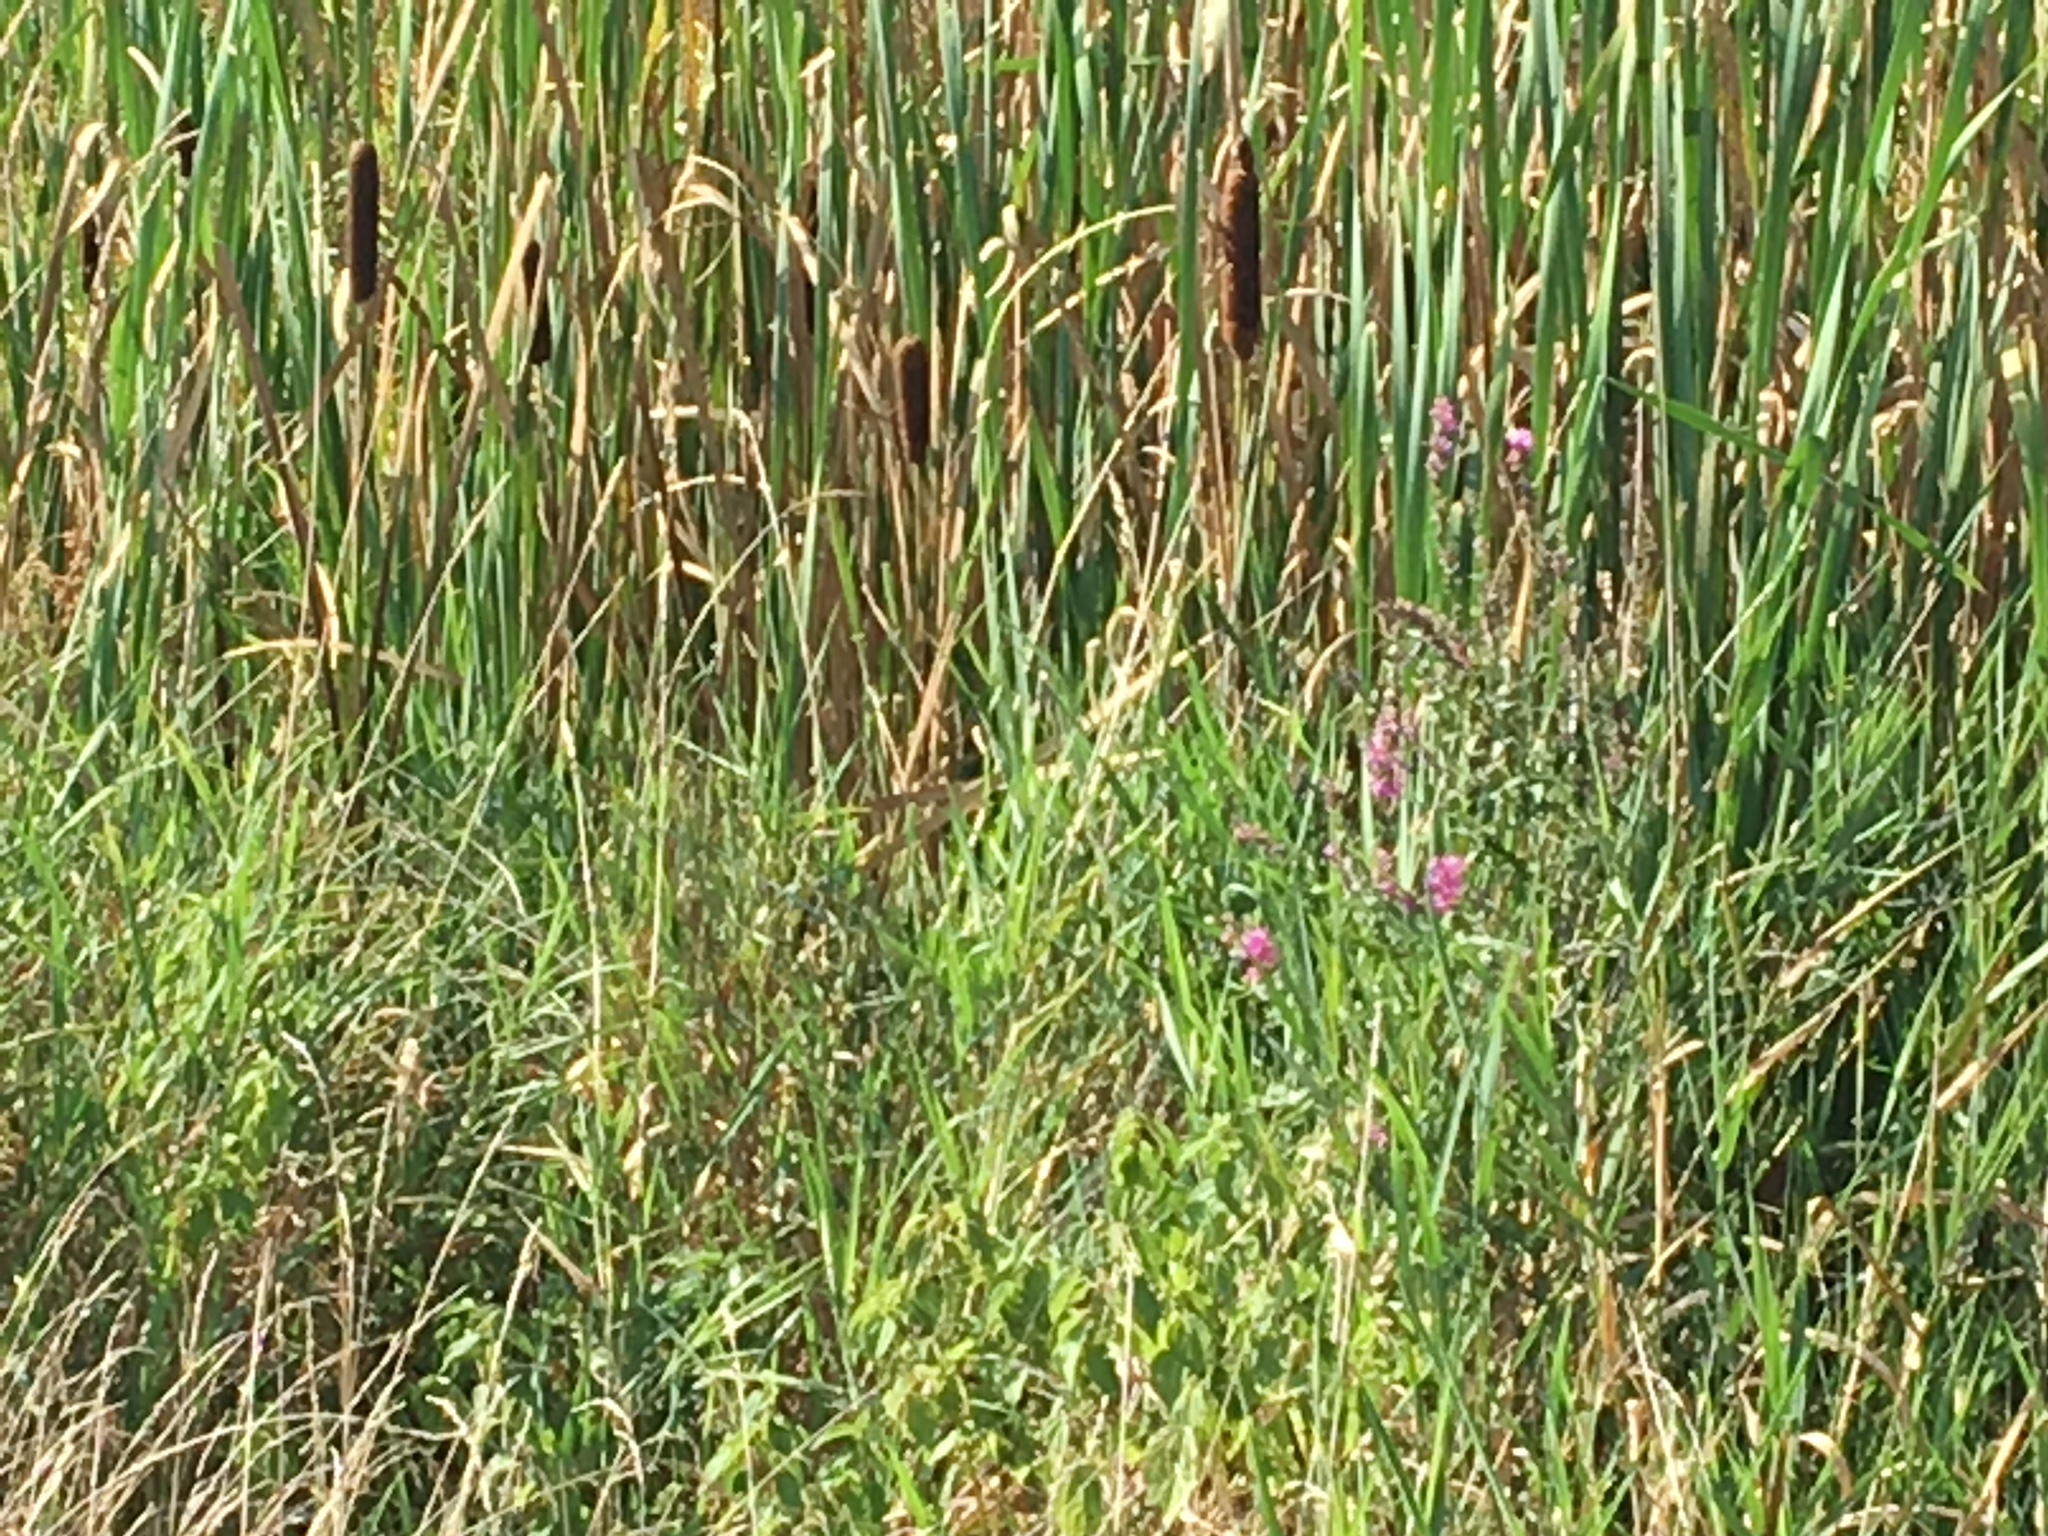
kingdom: Plantae
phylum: Tracheophyta
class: Magnoliopsida
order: Myrtales
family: Lythraceae
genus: Lythrum
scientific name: Lythrum salicaria
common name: Purple loosestrife
